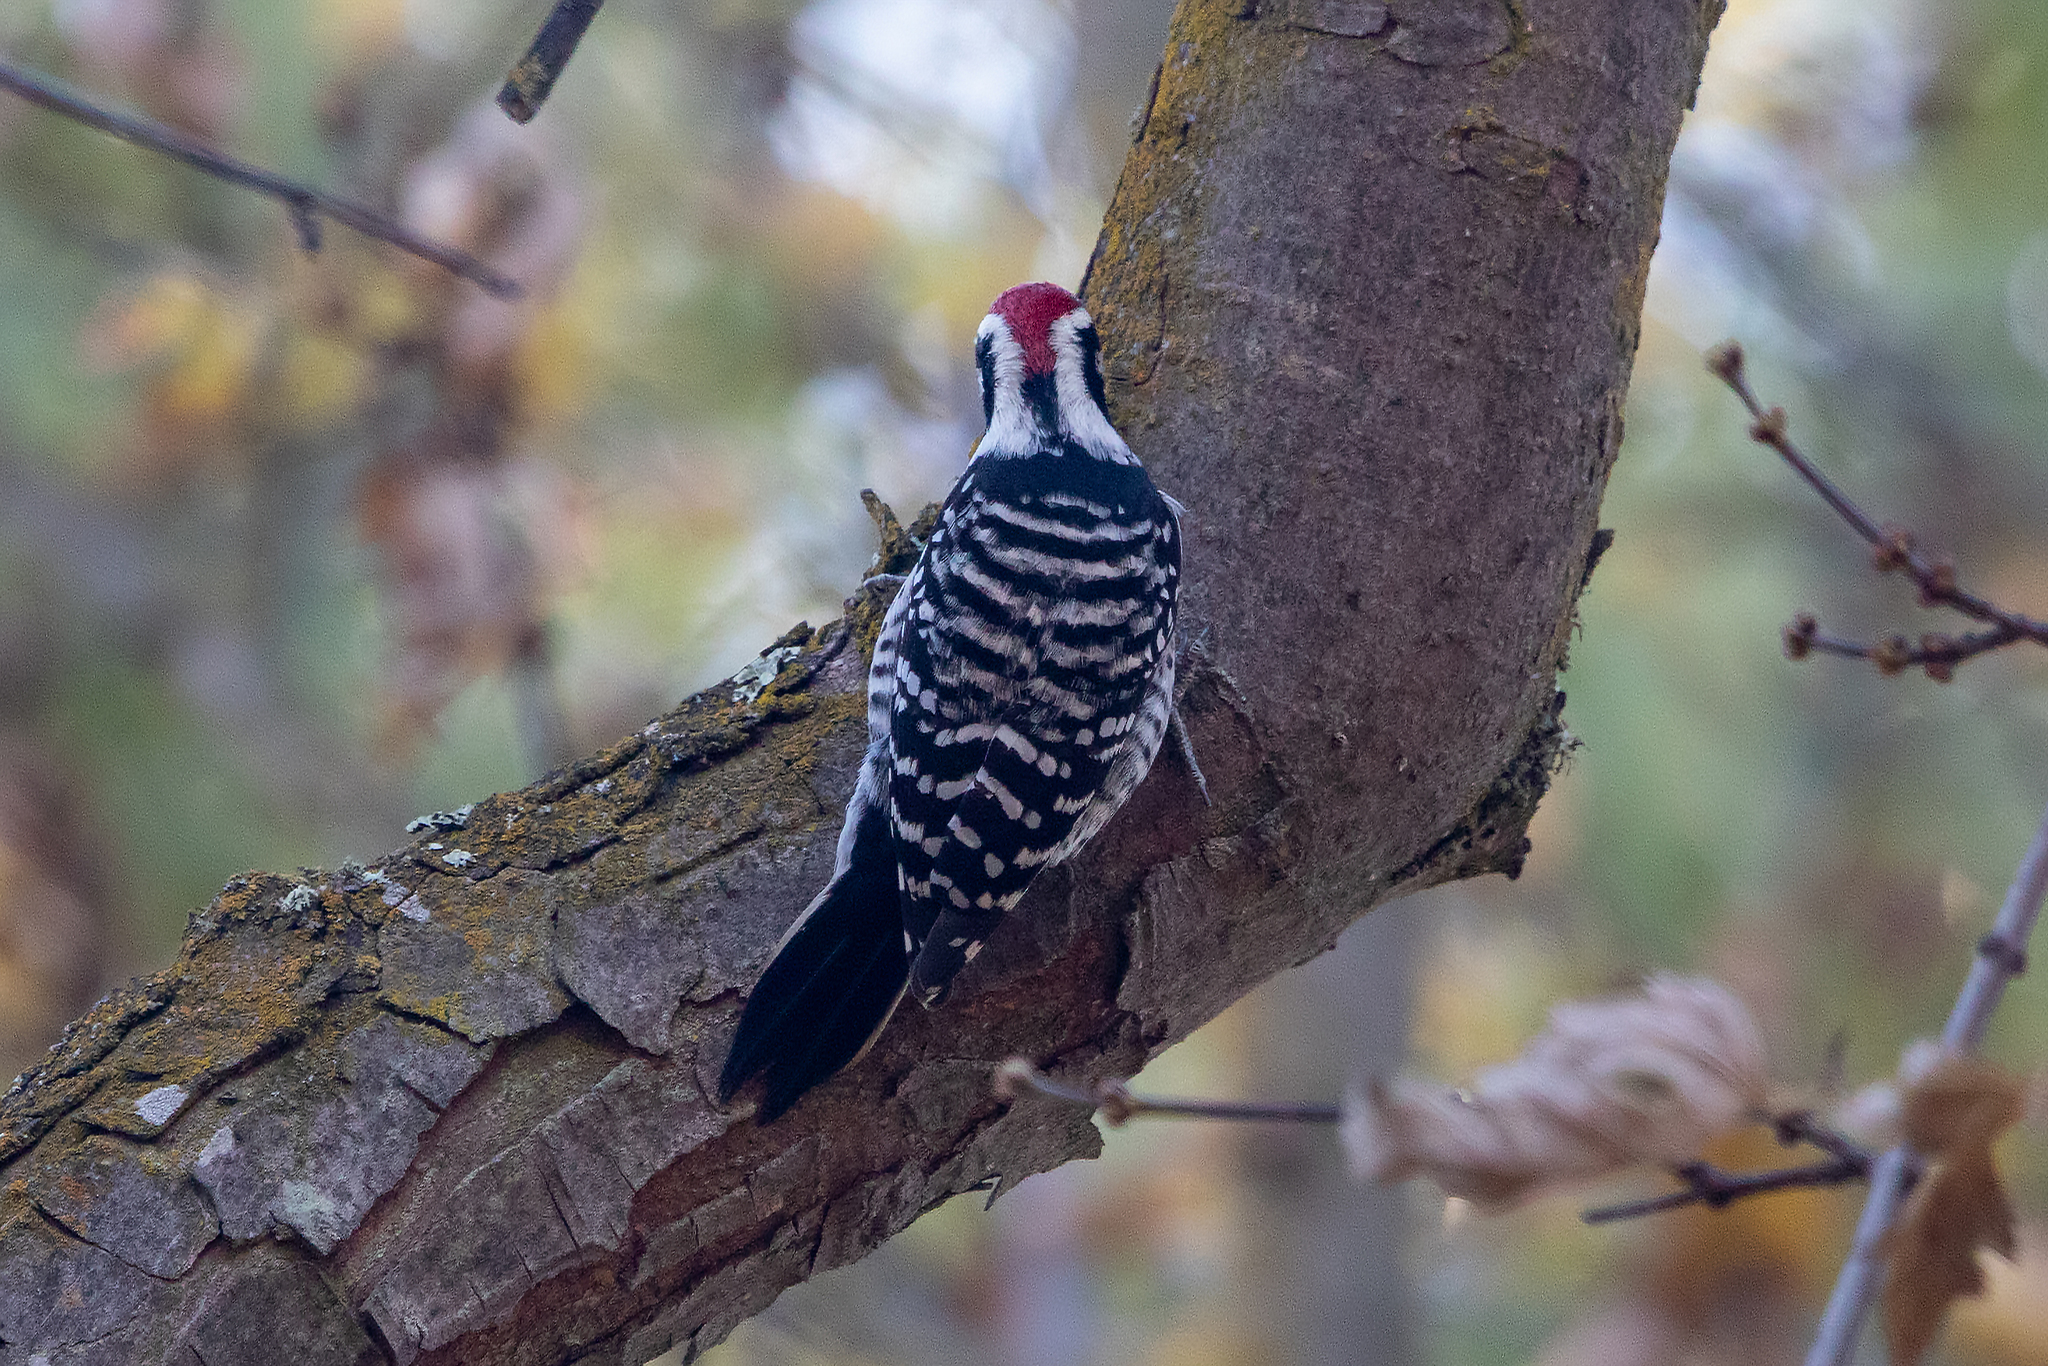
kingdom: Animalia
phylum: Chordata
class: Aves
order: Piciformes
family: Picidae
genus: Dryobates
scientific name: Dryobates nuttallii
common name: Nuttall's woodpecker
